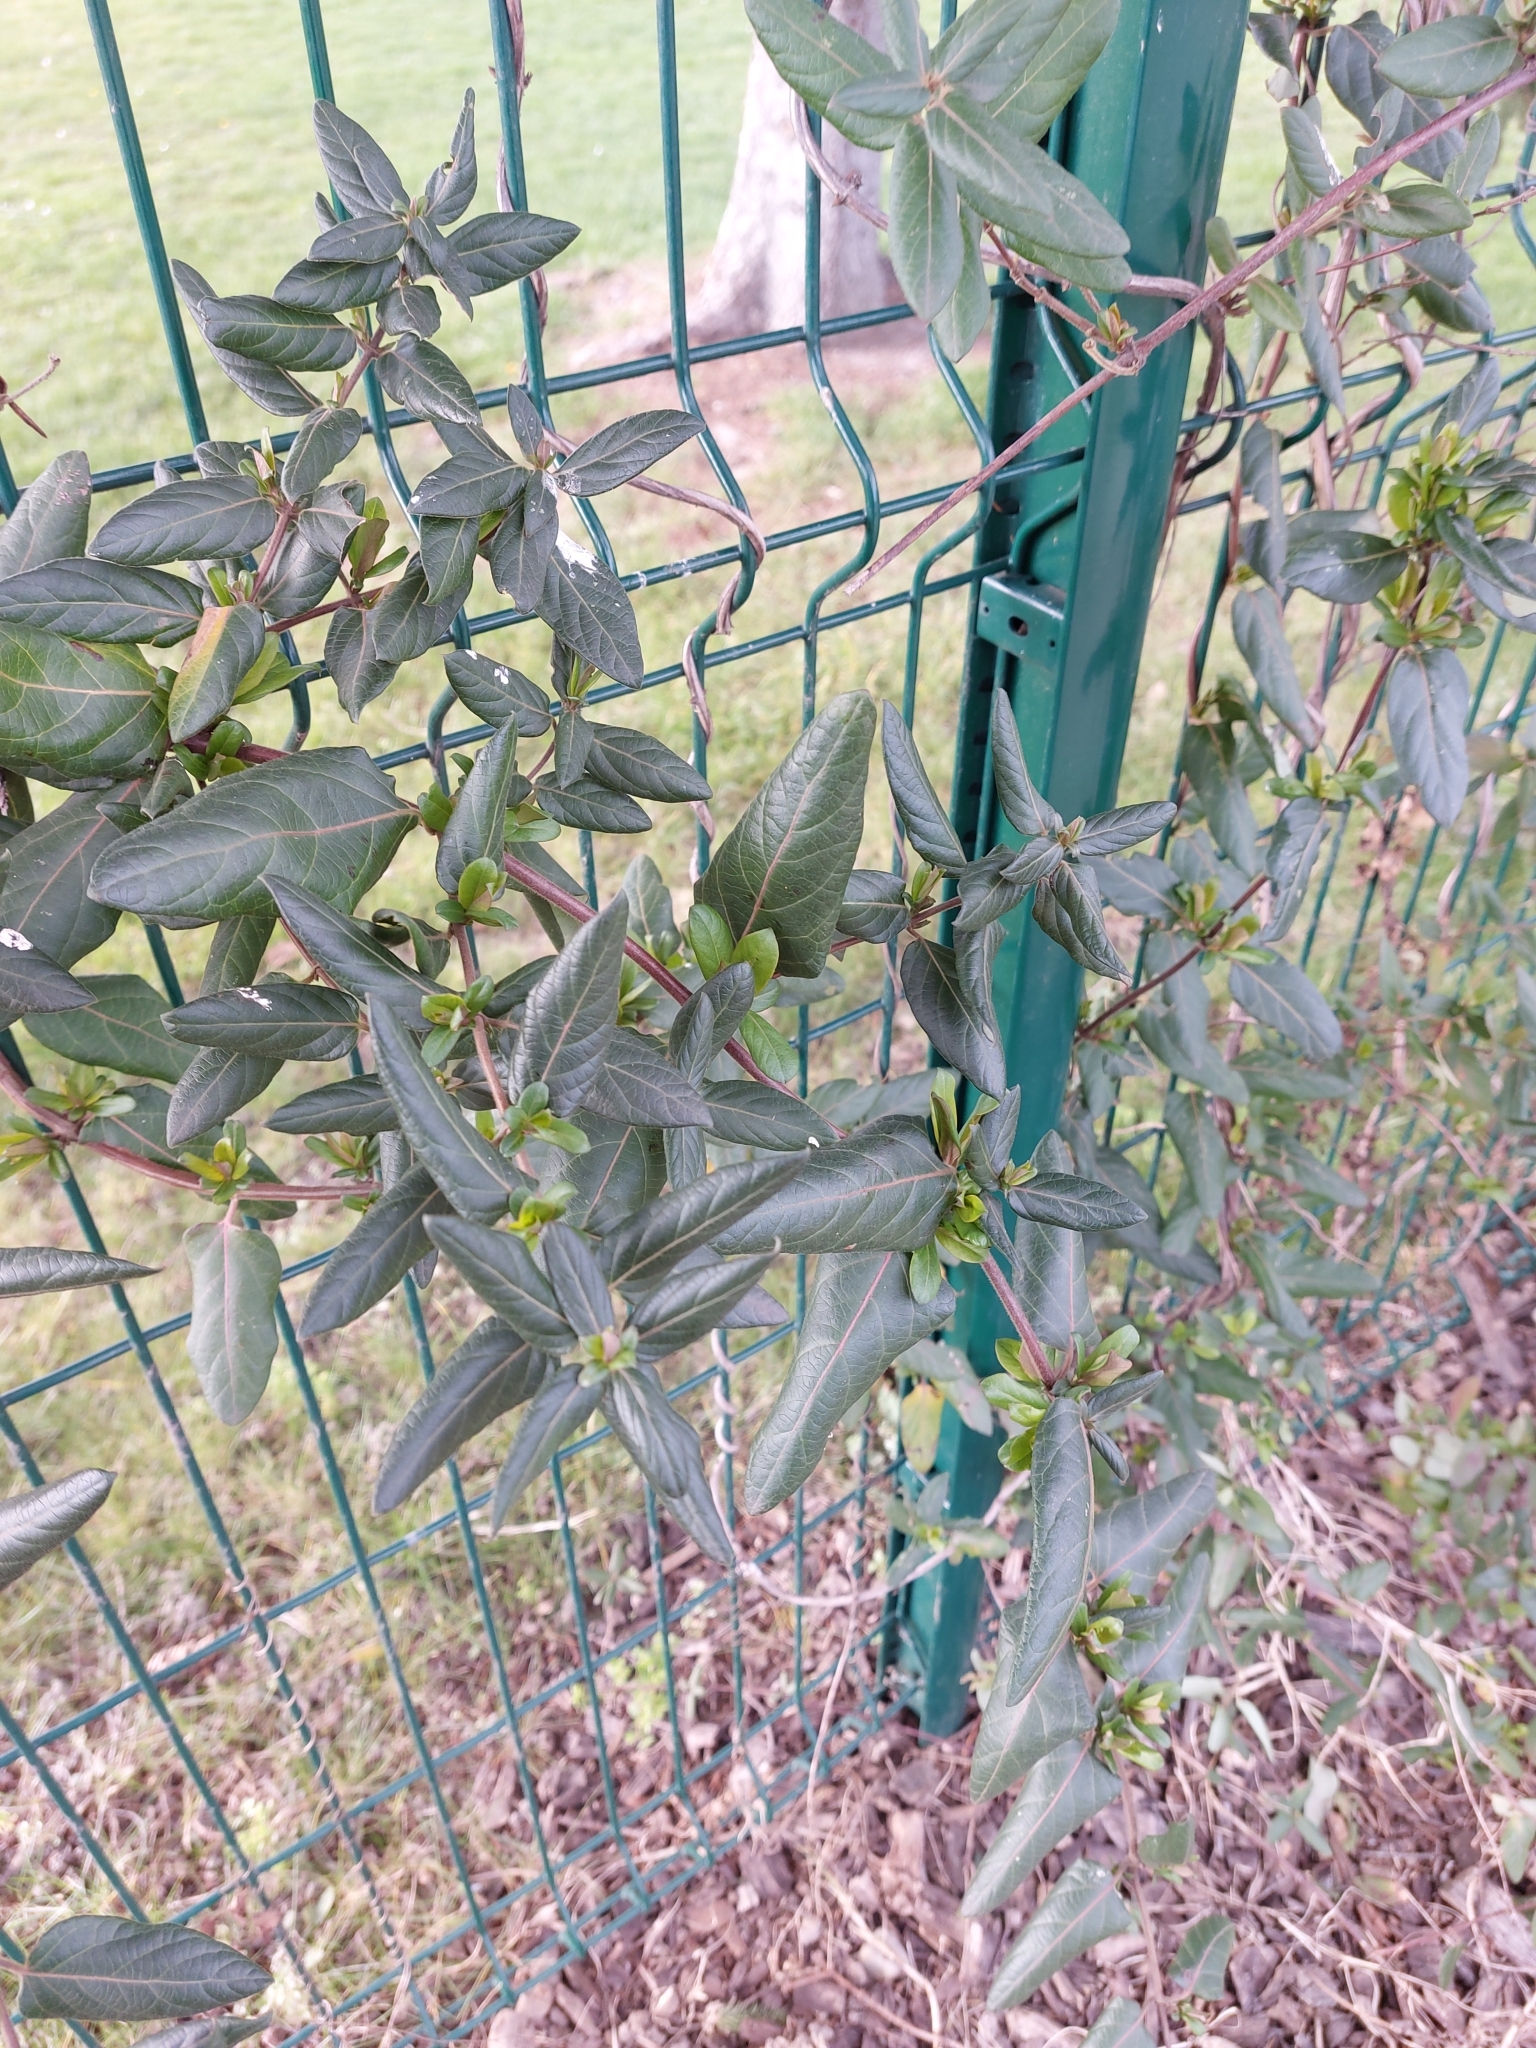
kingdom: Plantae
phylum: Tracheophyta
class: Magnoliopsida
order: Dipsacales
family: Caprifoliaceae
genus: Lonicera
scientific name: Lonicera japonica
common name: Japanese honeysuckle
